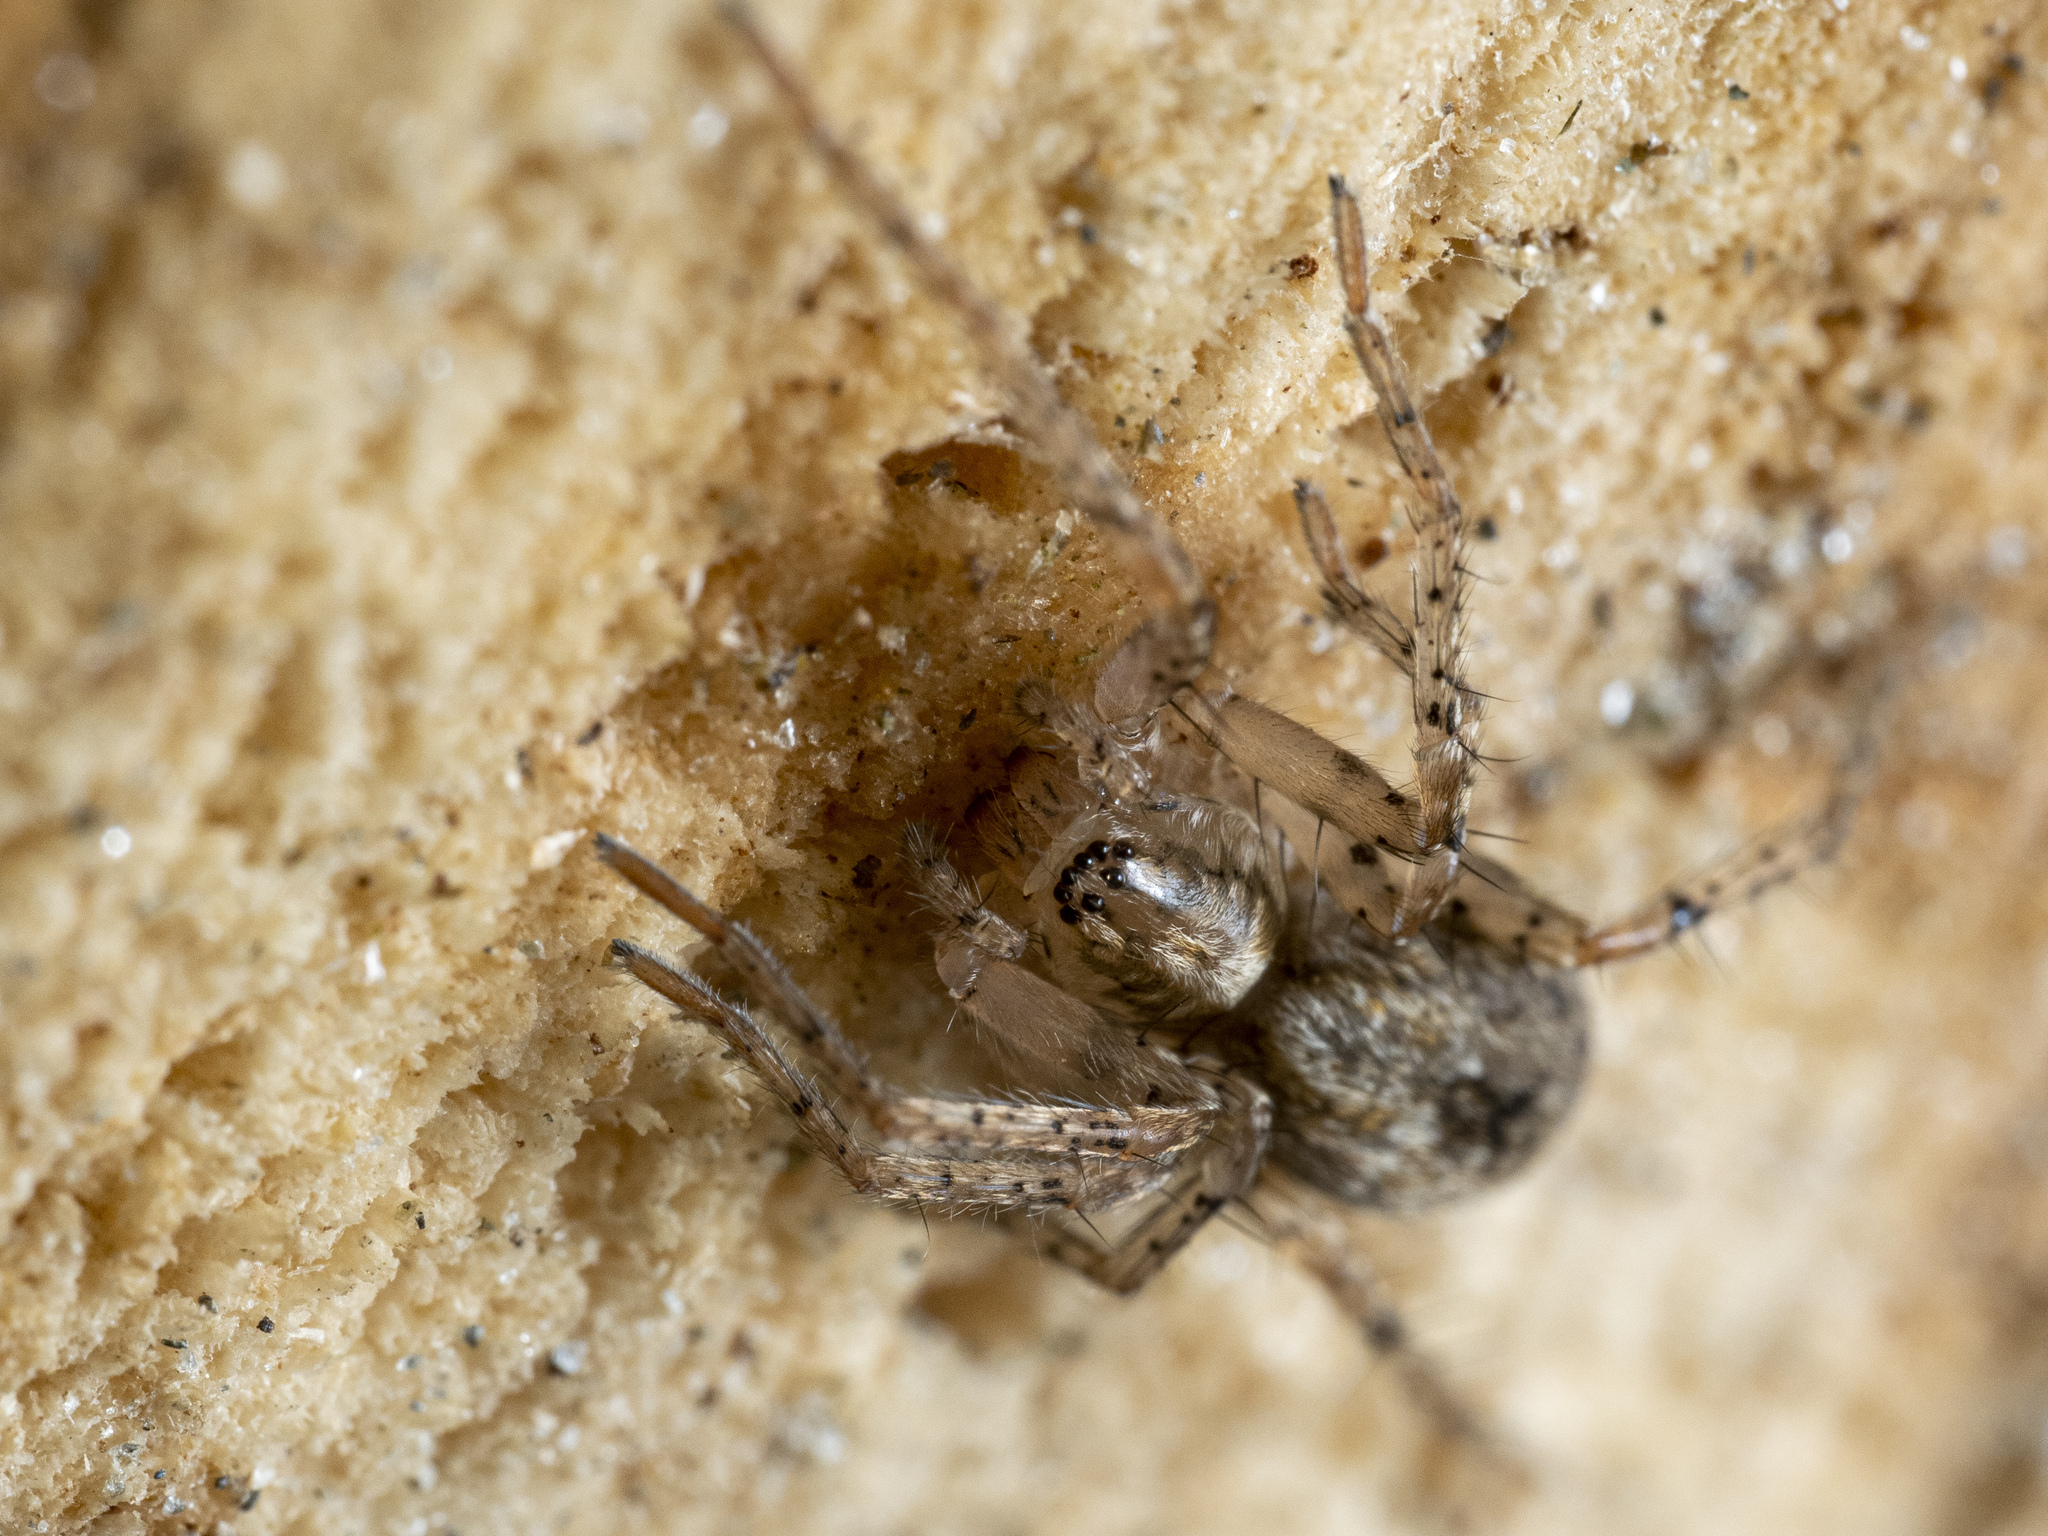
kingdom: Animalia
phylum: Arthropoda
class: Arachnida
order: Araneae
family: Anyphaenidae
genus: Anyphaena
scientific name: Anyphaena accentuata
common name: Buzzing spider
